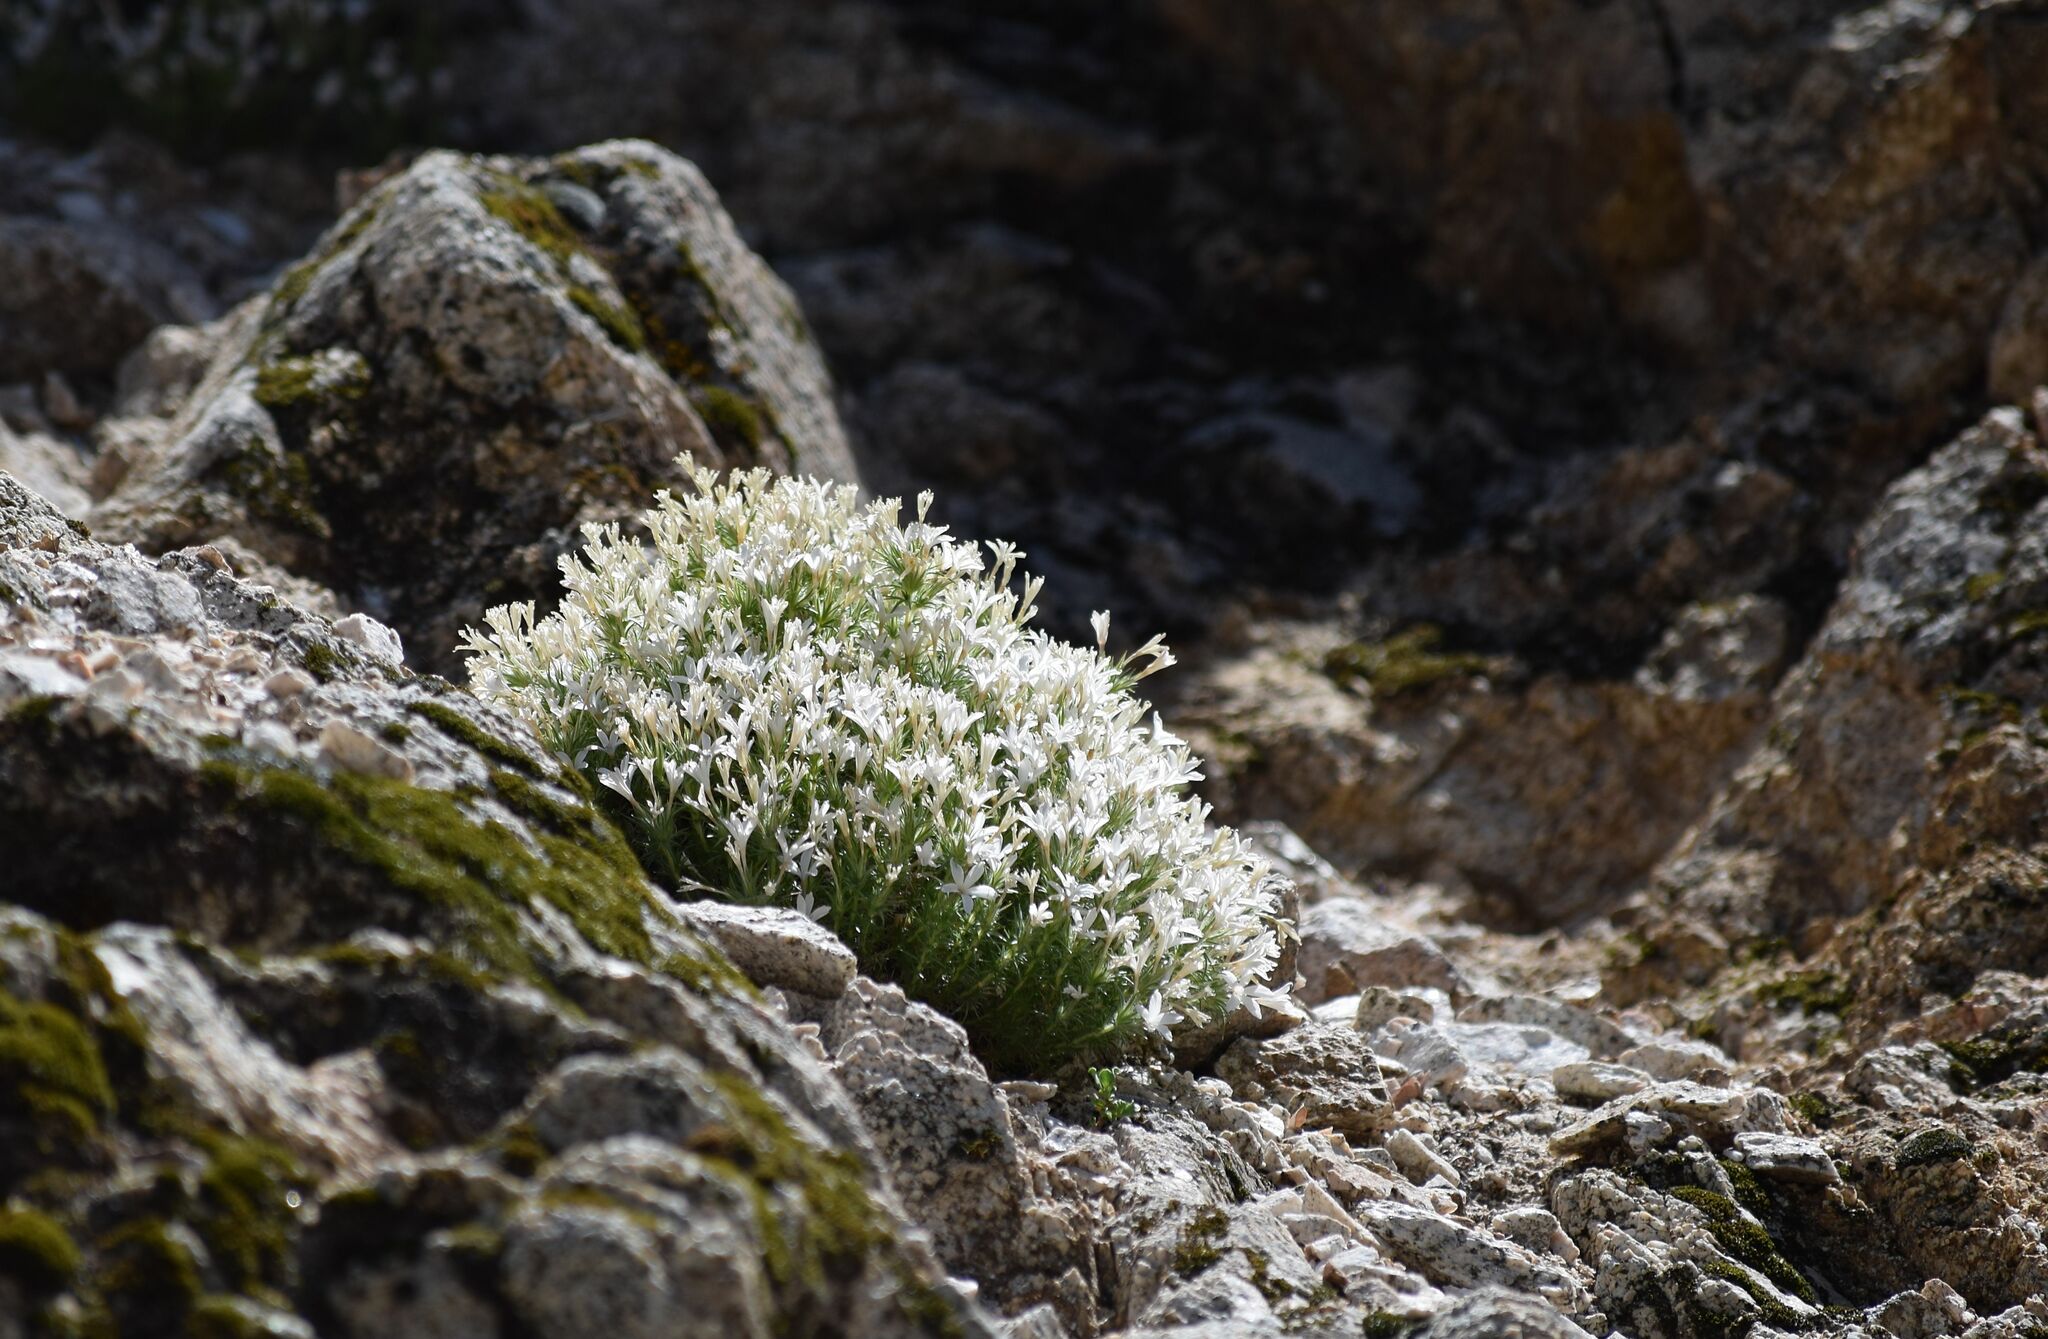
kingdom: Plantae
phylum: Tracheophyta
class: Magnoliopsida
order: Ericales
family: Polemoniaceae
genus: Linanthus
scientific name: Linanthus pungens
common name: Granite prickly phlox
